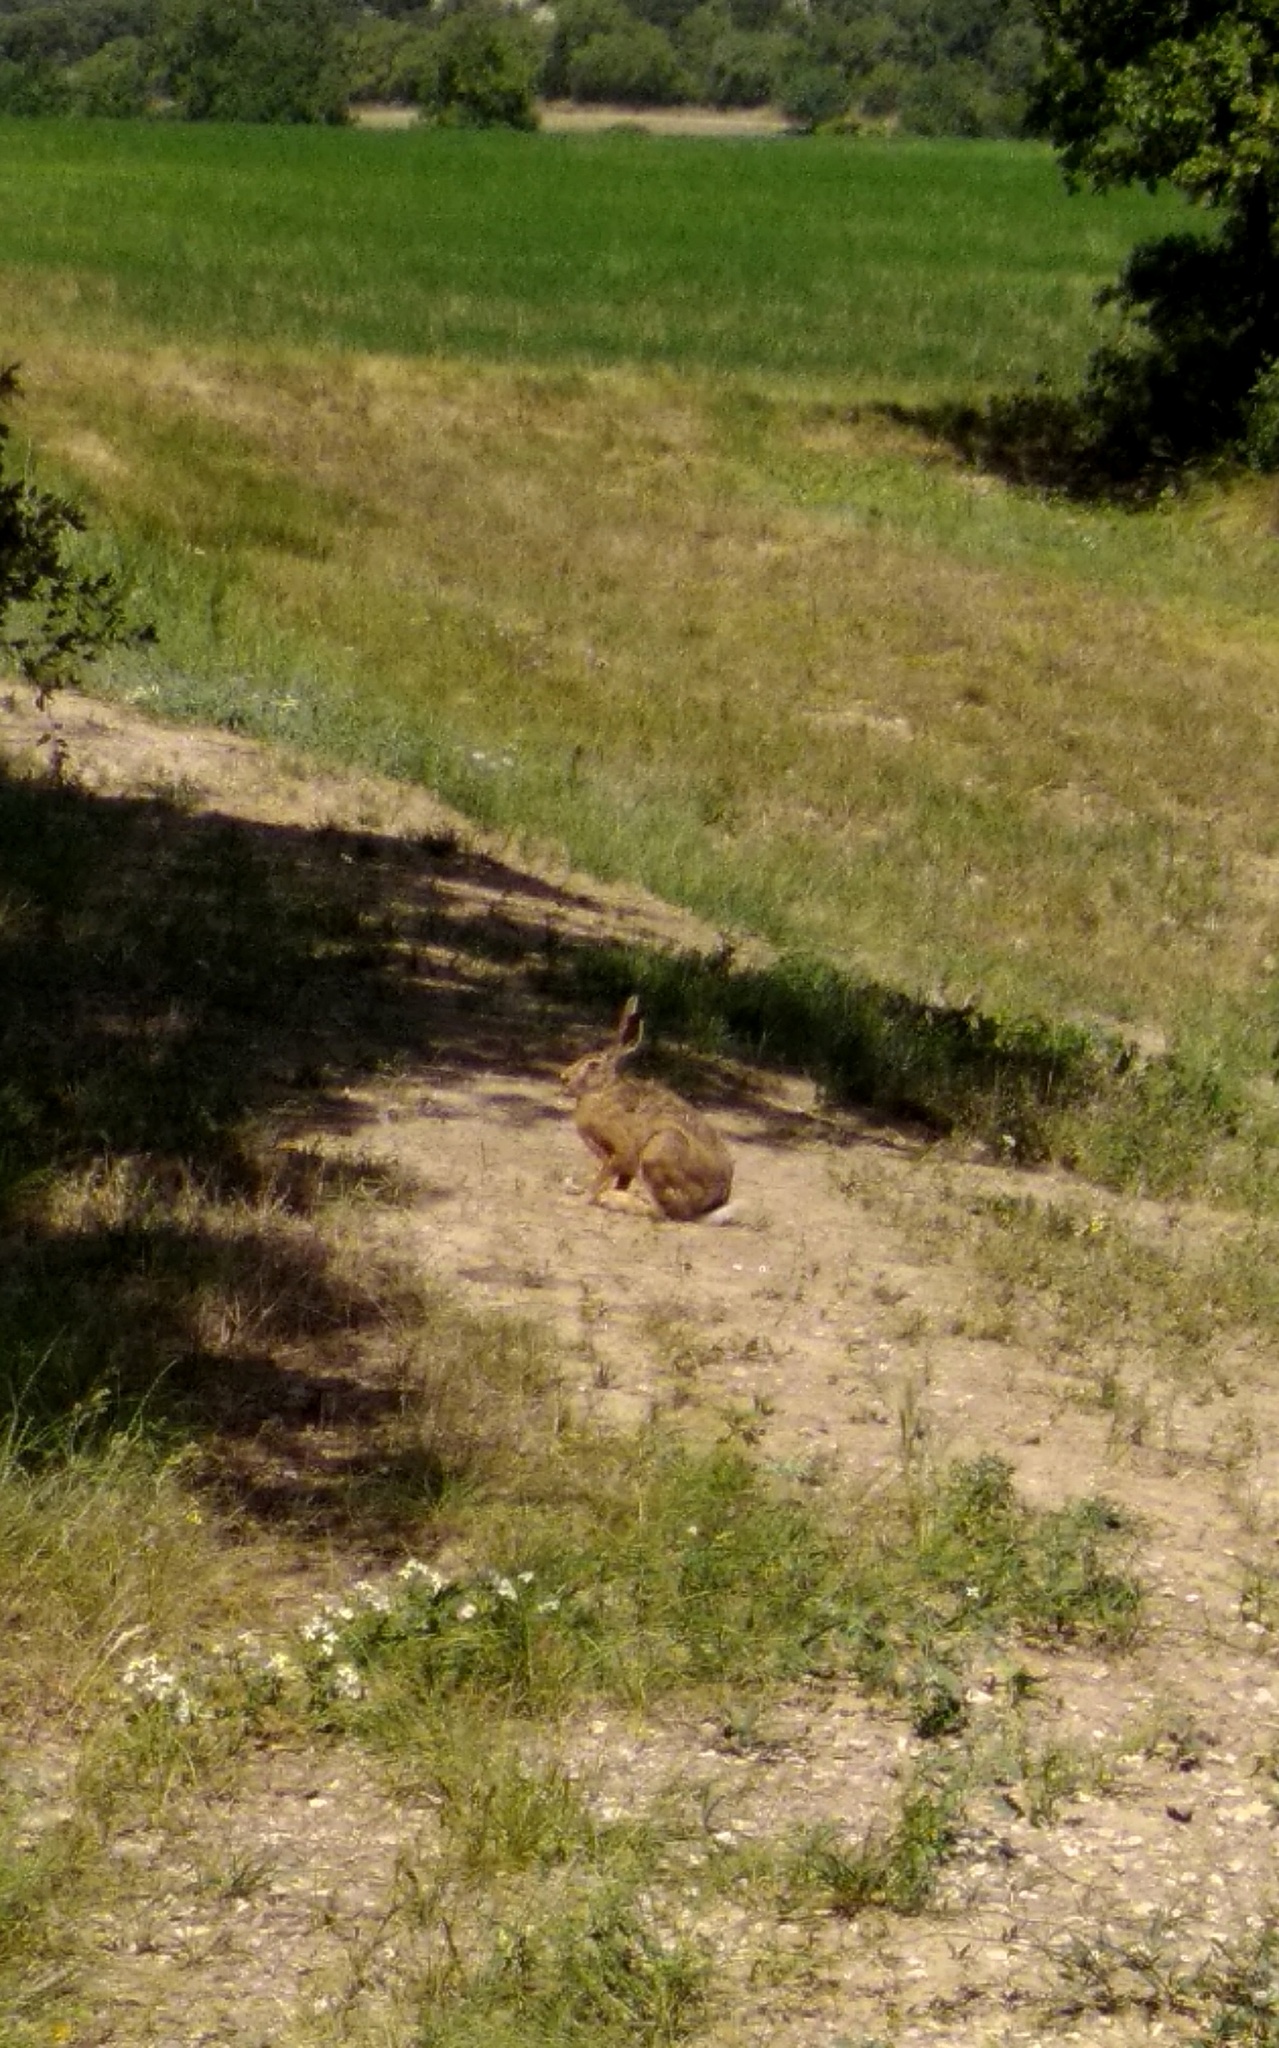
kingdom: Animalia
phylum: Chordata
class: Mammalia
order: Lagomorpha
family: Leporidae
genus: Lepus
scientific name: Lepus europaeus
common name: European hare
